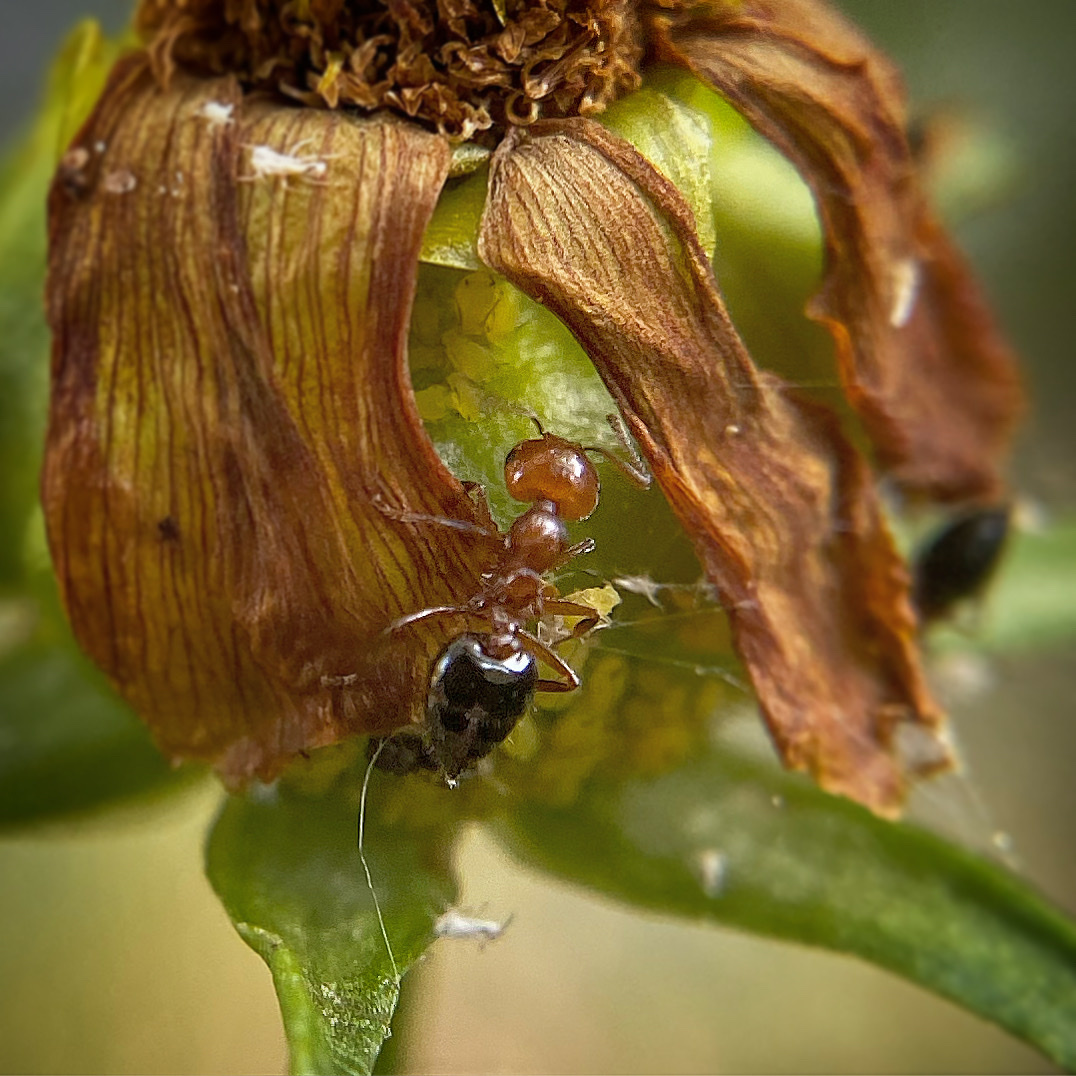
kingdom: Animalia
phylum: Arthropoda
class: Insecta
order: Hymenoptera
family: Formicidae
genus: Crematogaster
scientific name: Crematogaster laeviuscula
